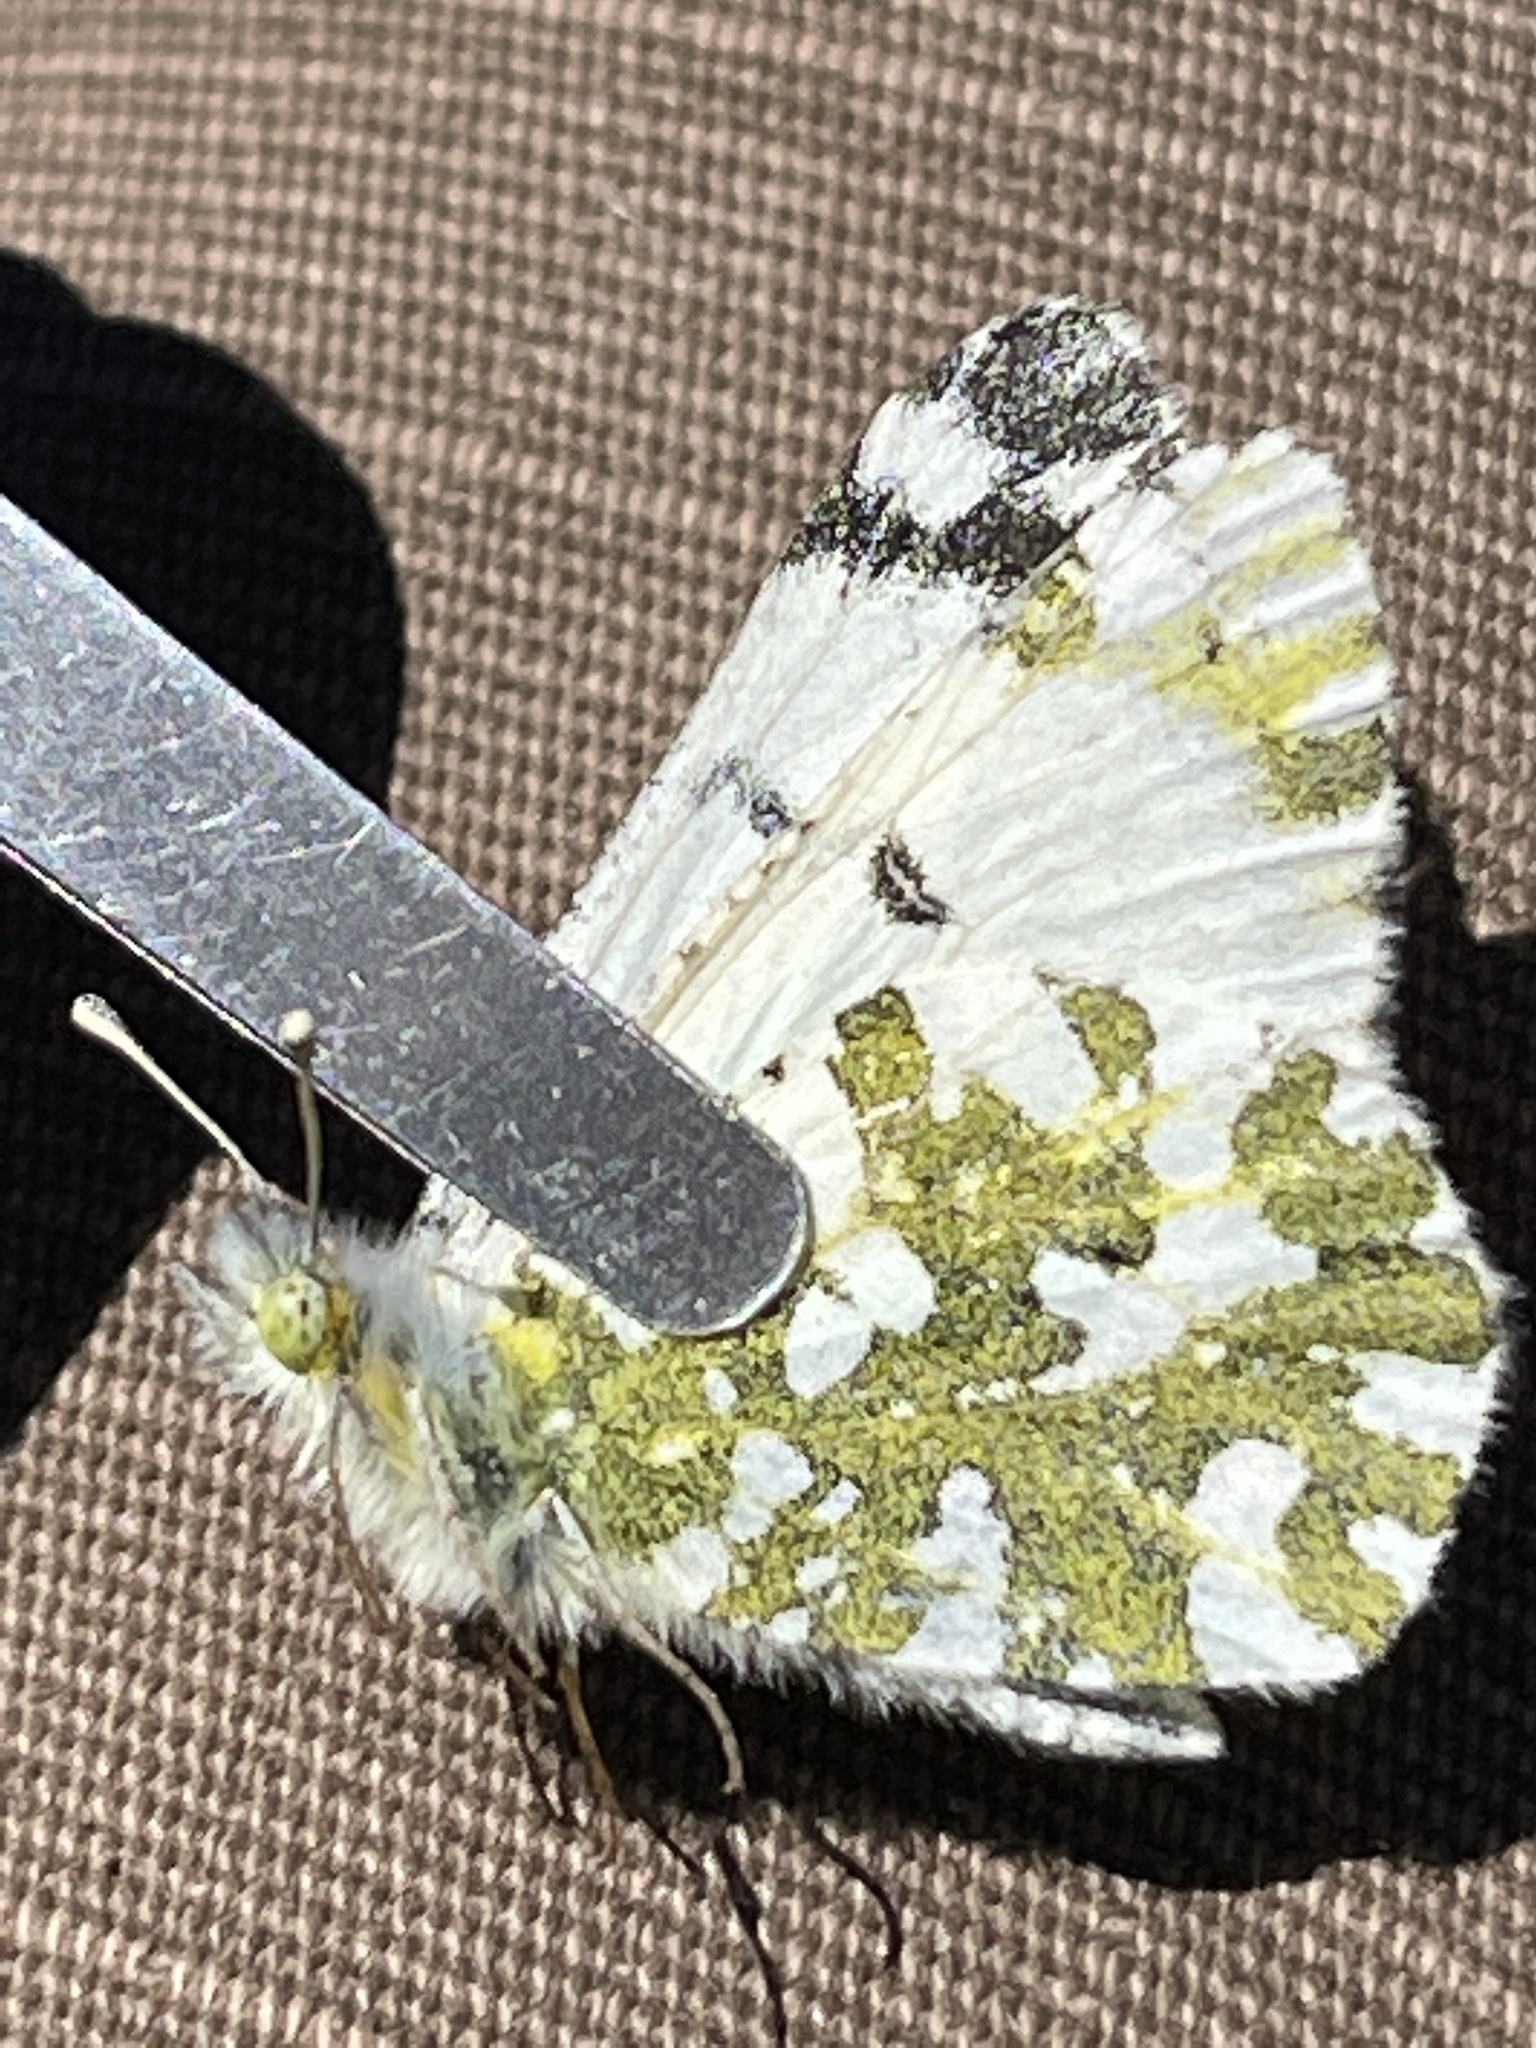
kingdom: Animalia
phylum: Arthropoda
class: Insecta
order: Lepidoptera
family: Pieridae
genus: Euchloe
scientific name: Euchloe ausonides
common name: Creamy marblewing
